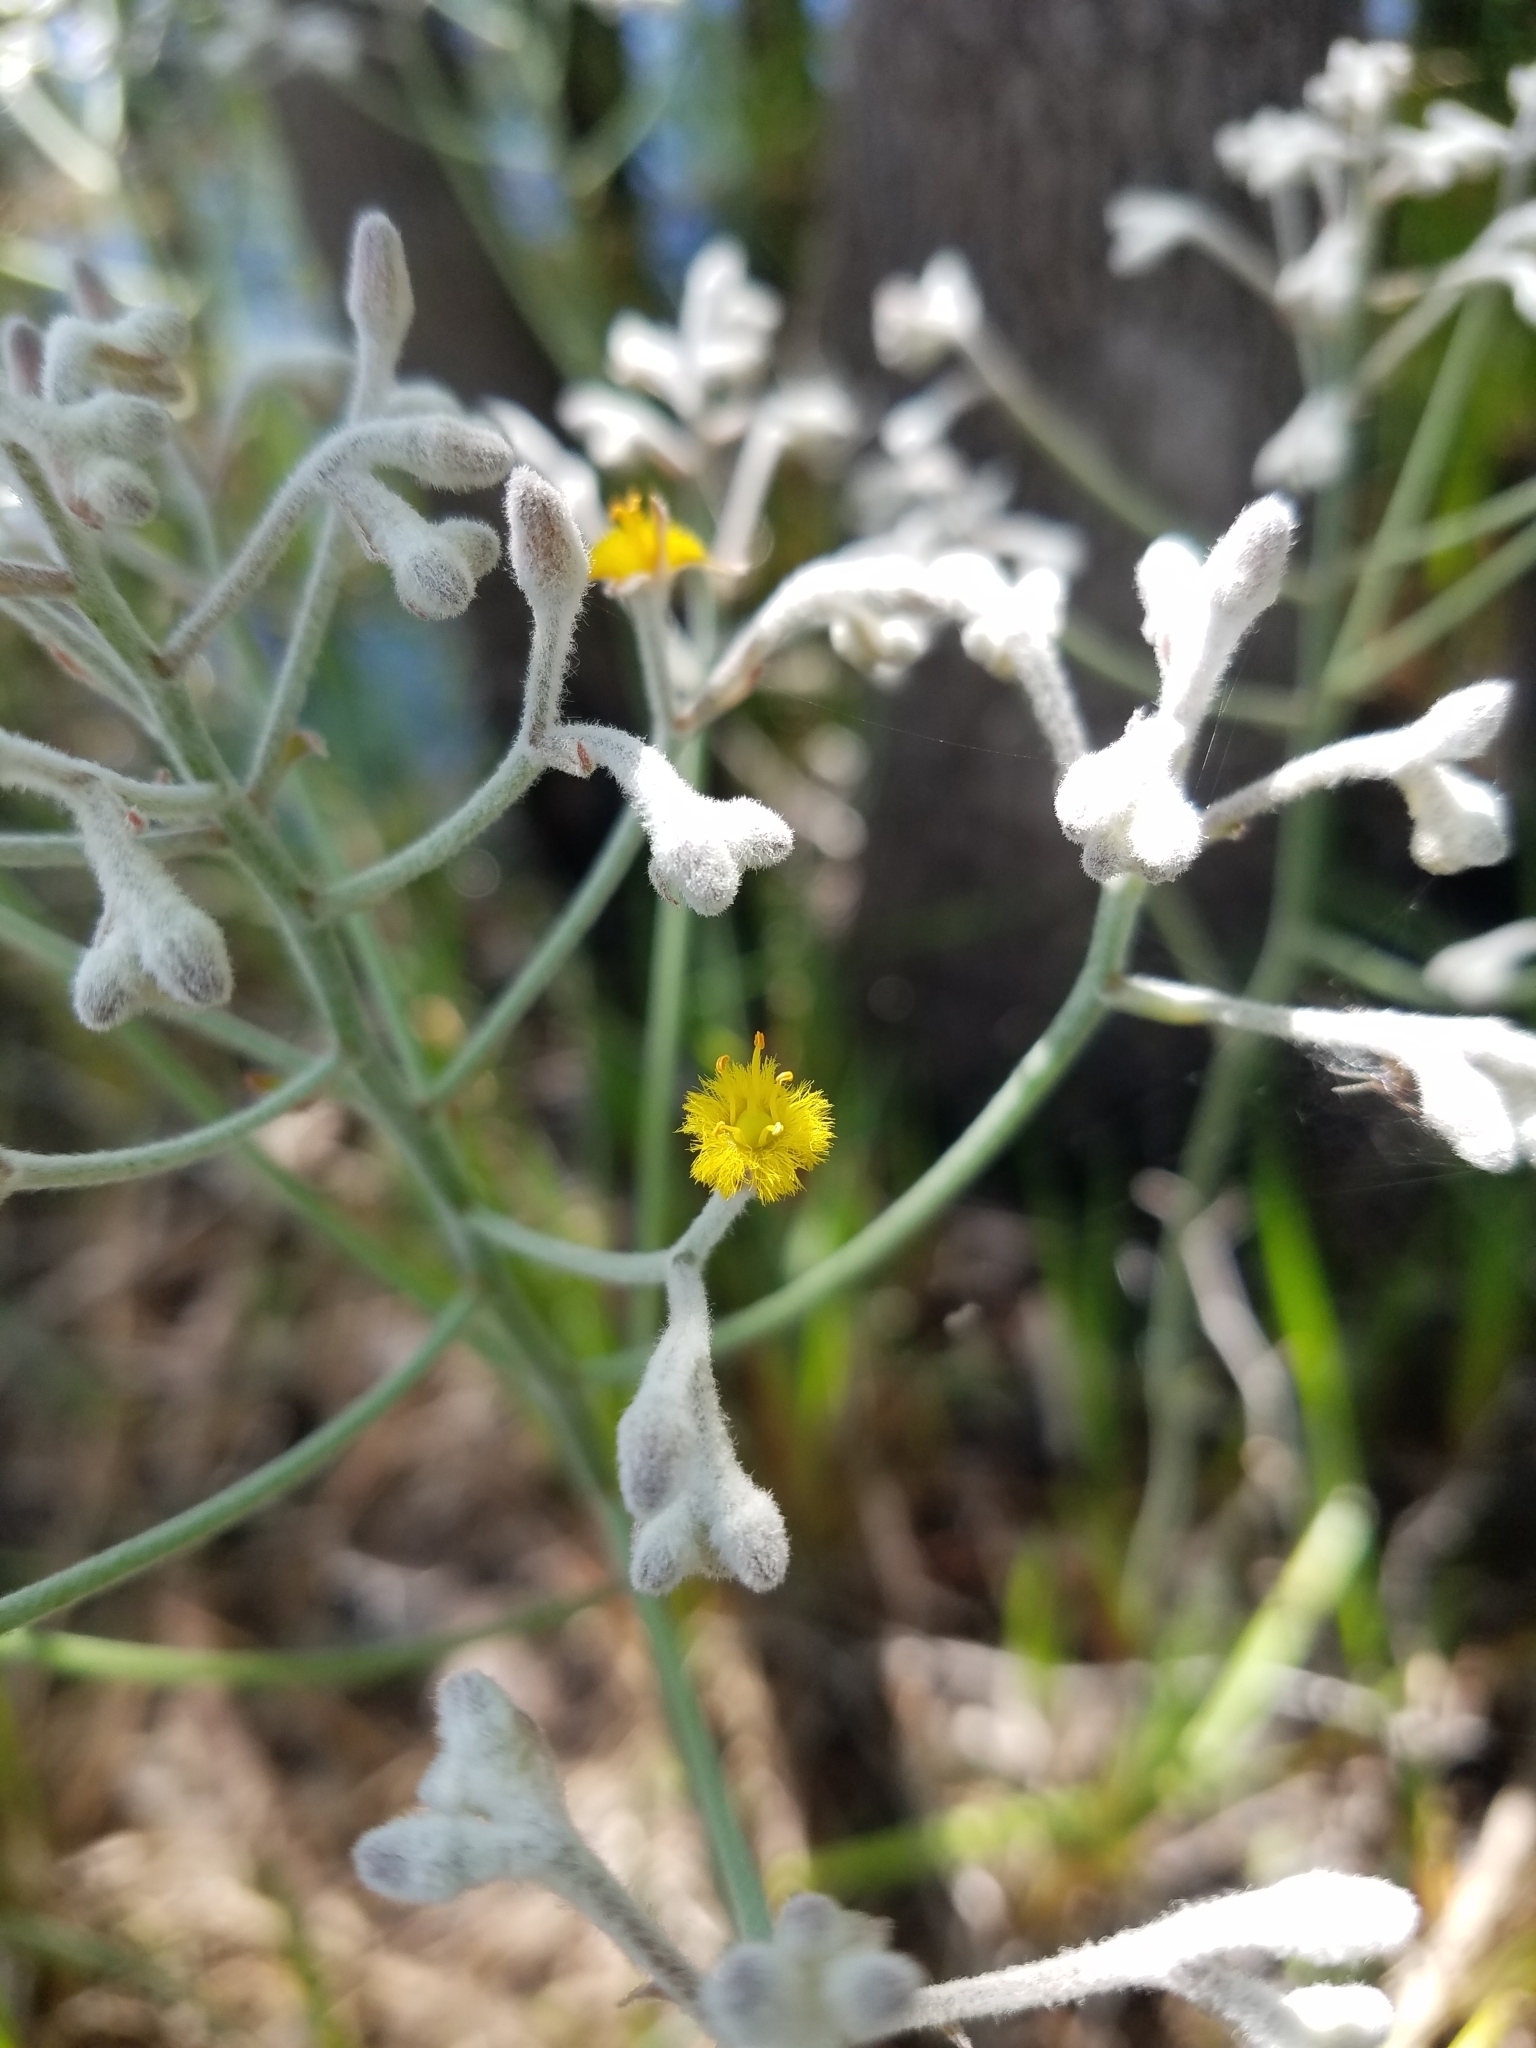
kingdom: Plantae
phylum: Tracheophyta
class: Liliopsida
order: Dioscoreales
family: Nartheciaceae
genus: Lophiola
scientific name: Lophiola aurea
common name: Golden-crest
